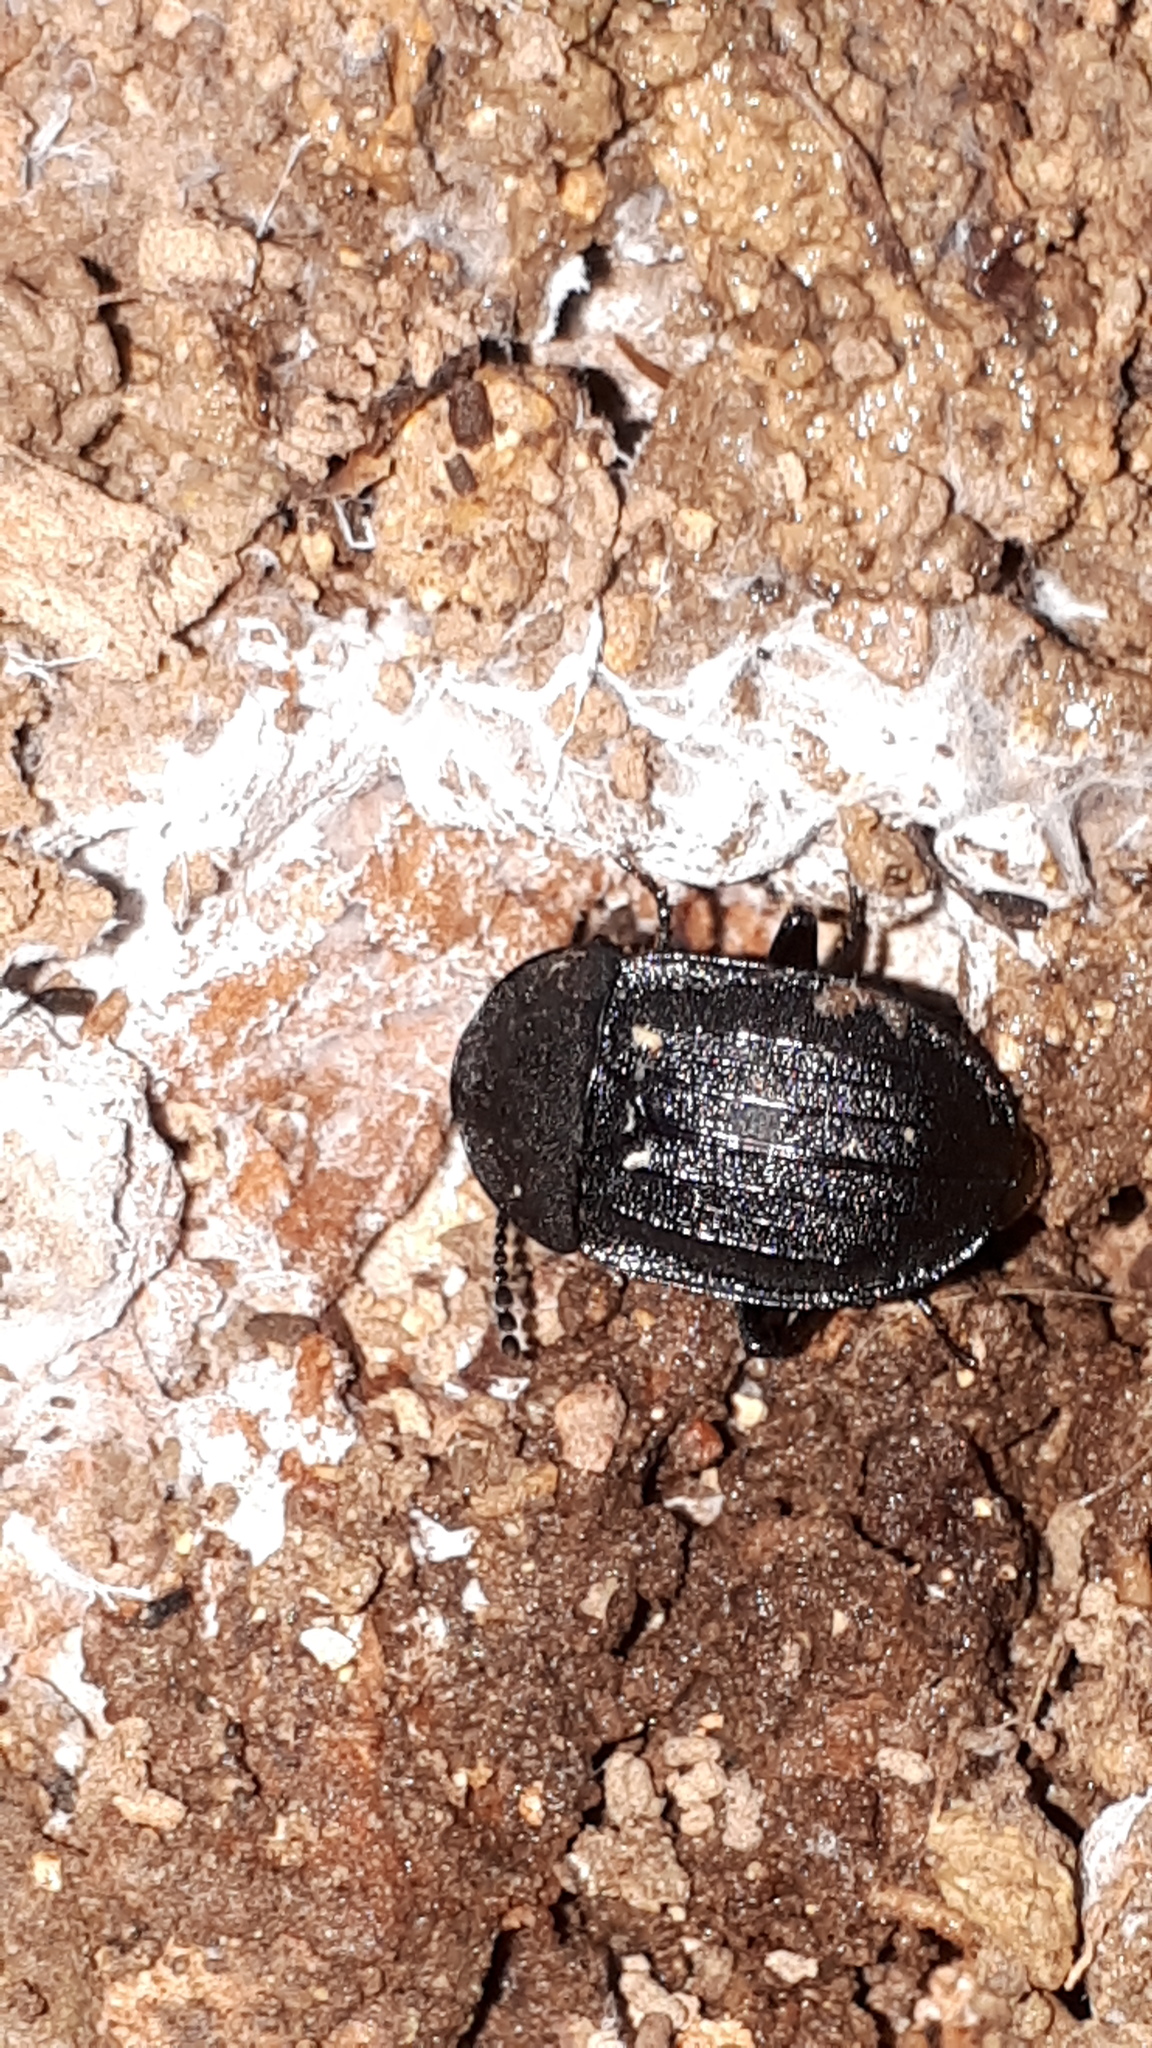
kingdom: Animalia
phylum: Arthropoda
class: Insecta
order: Coleoptera
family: Staphylinidae
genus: Silpha
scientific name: Silpha atrata
